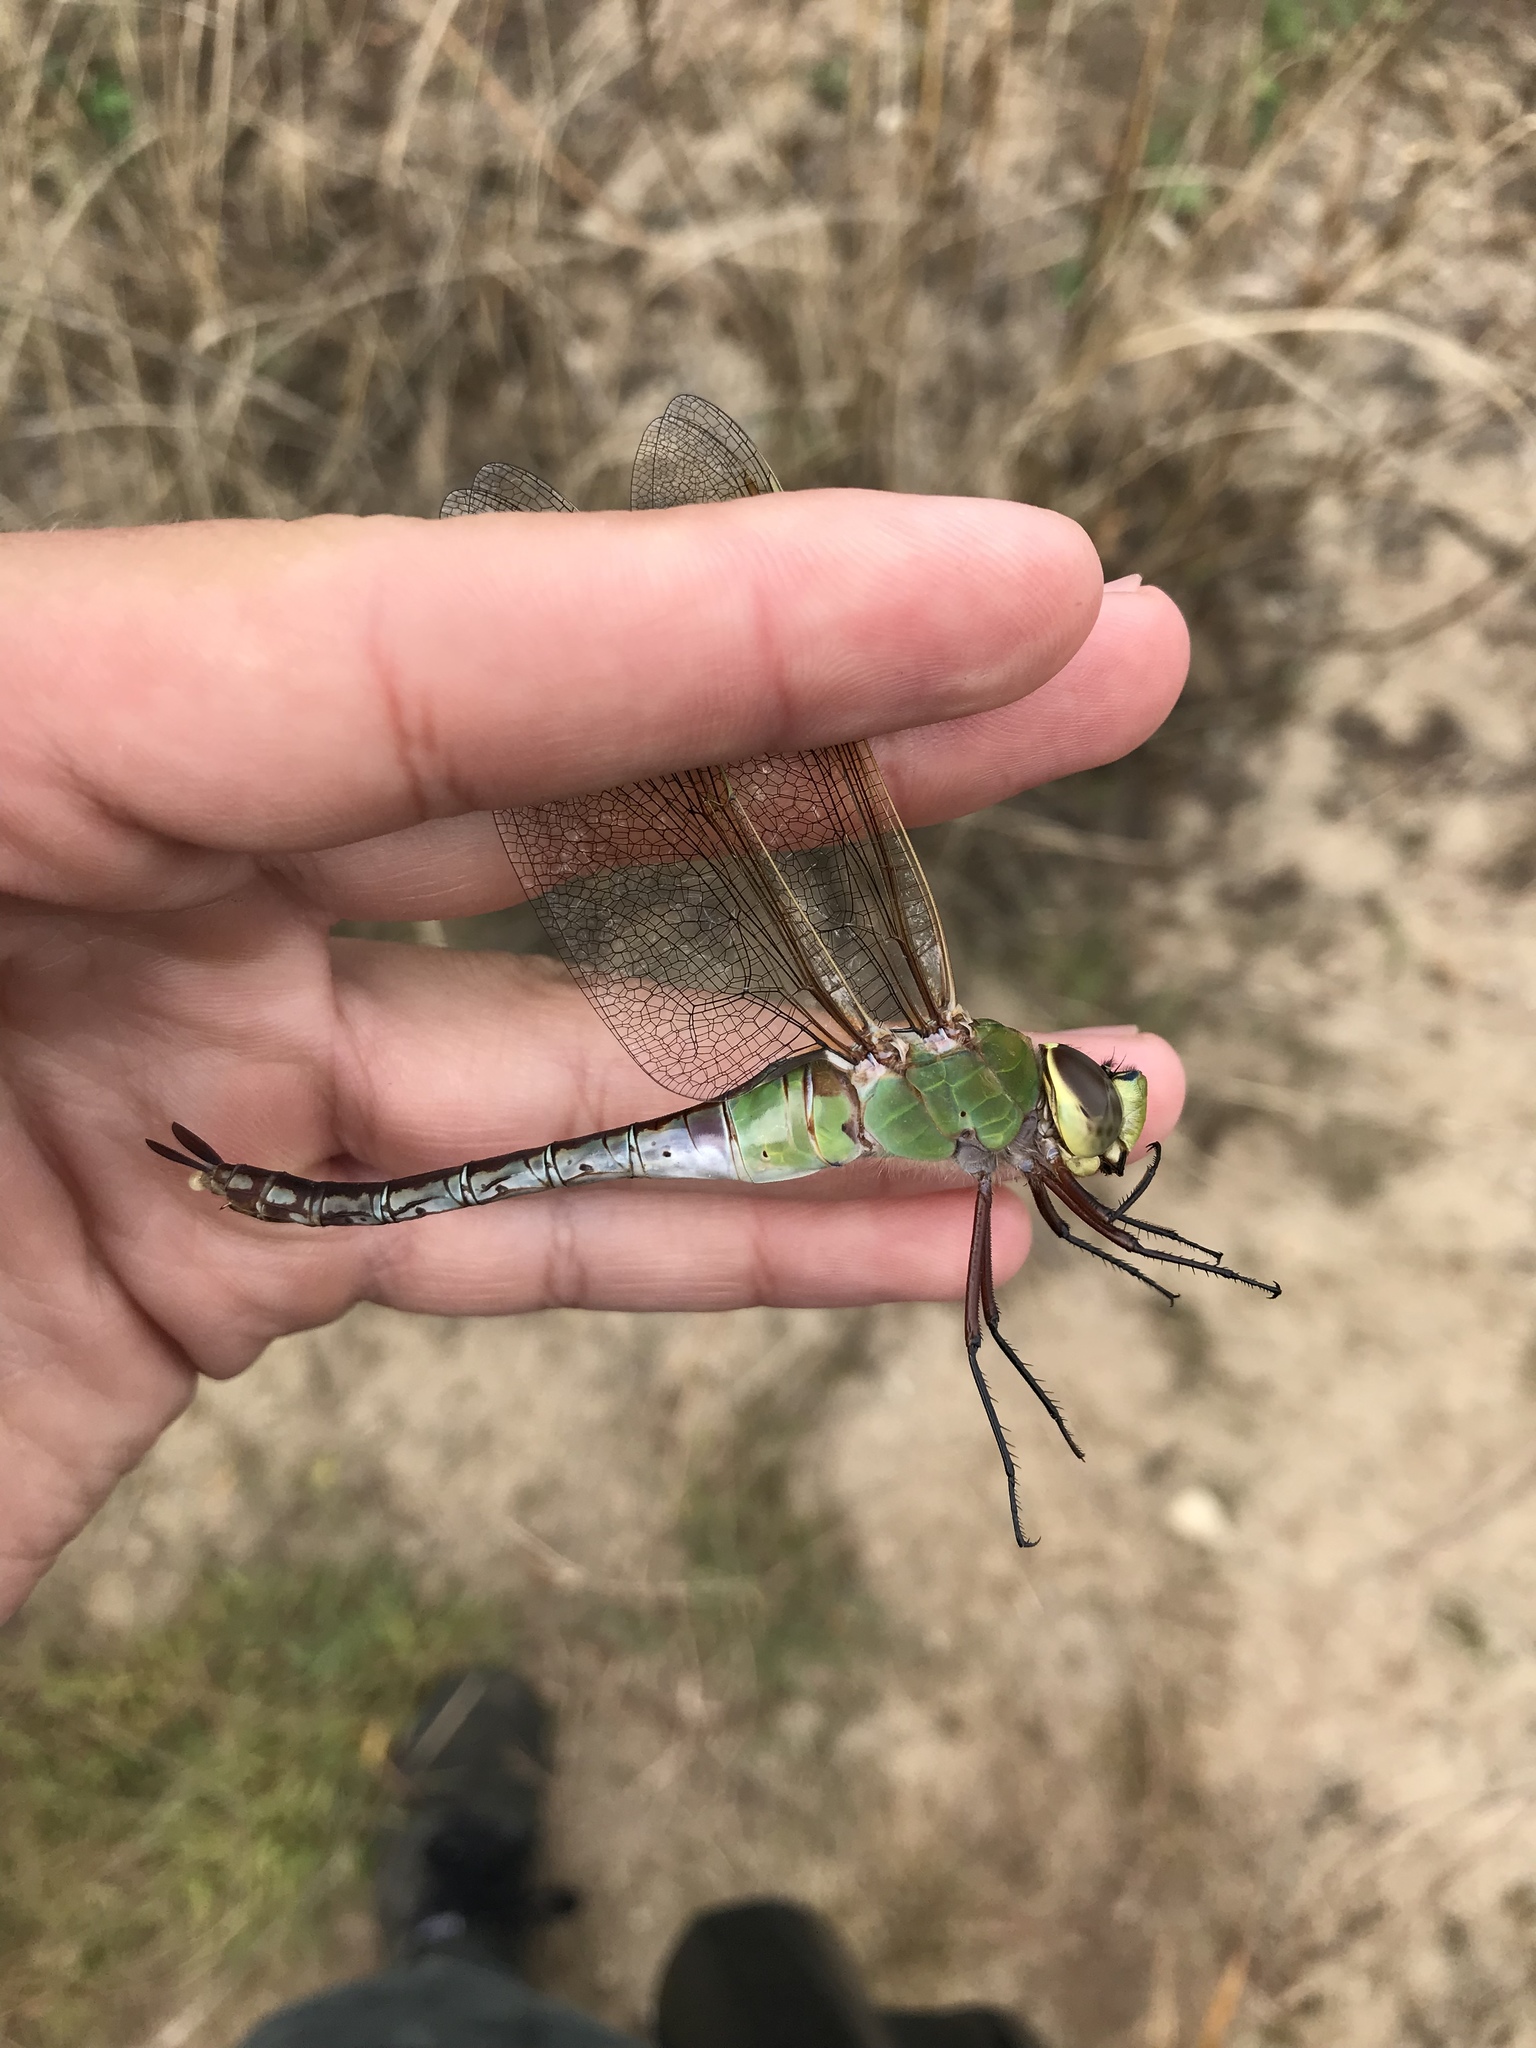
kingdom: Animalia
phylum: Arthropoda
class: Insecta
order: Odonata
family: Aeshnidae
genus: Anax
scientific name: Anax junius
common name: Common green darner
